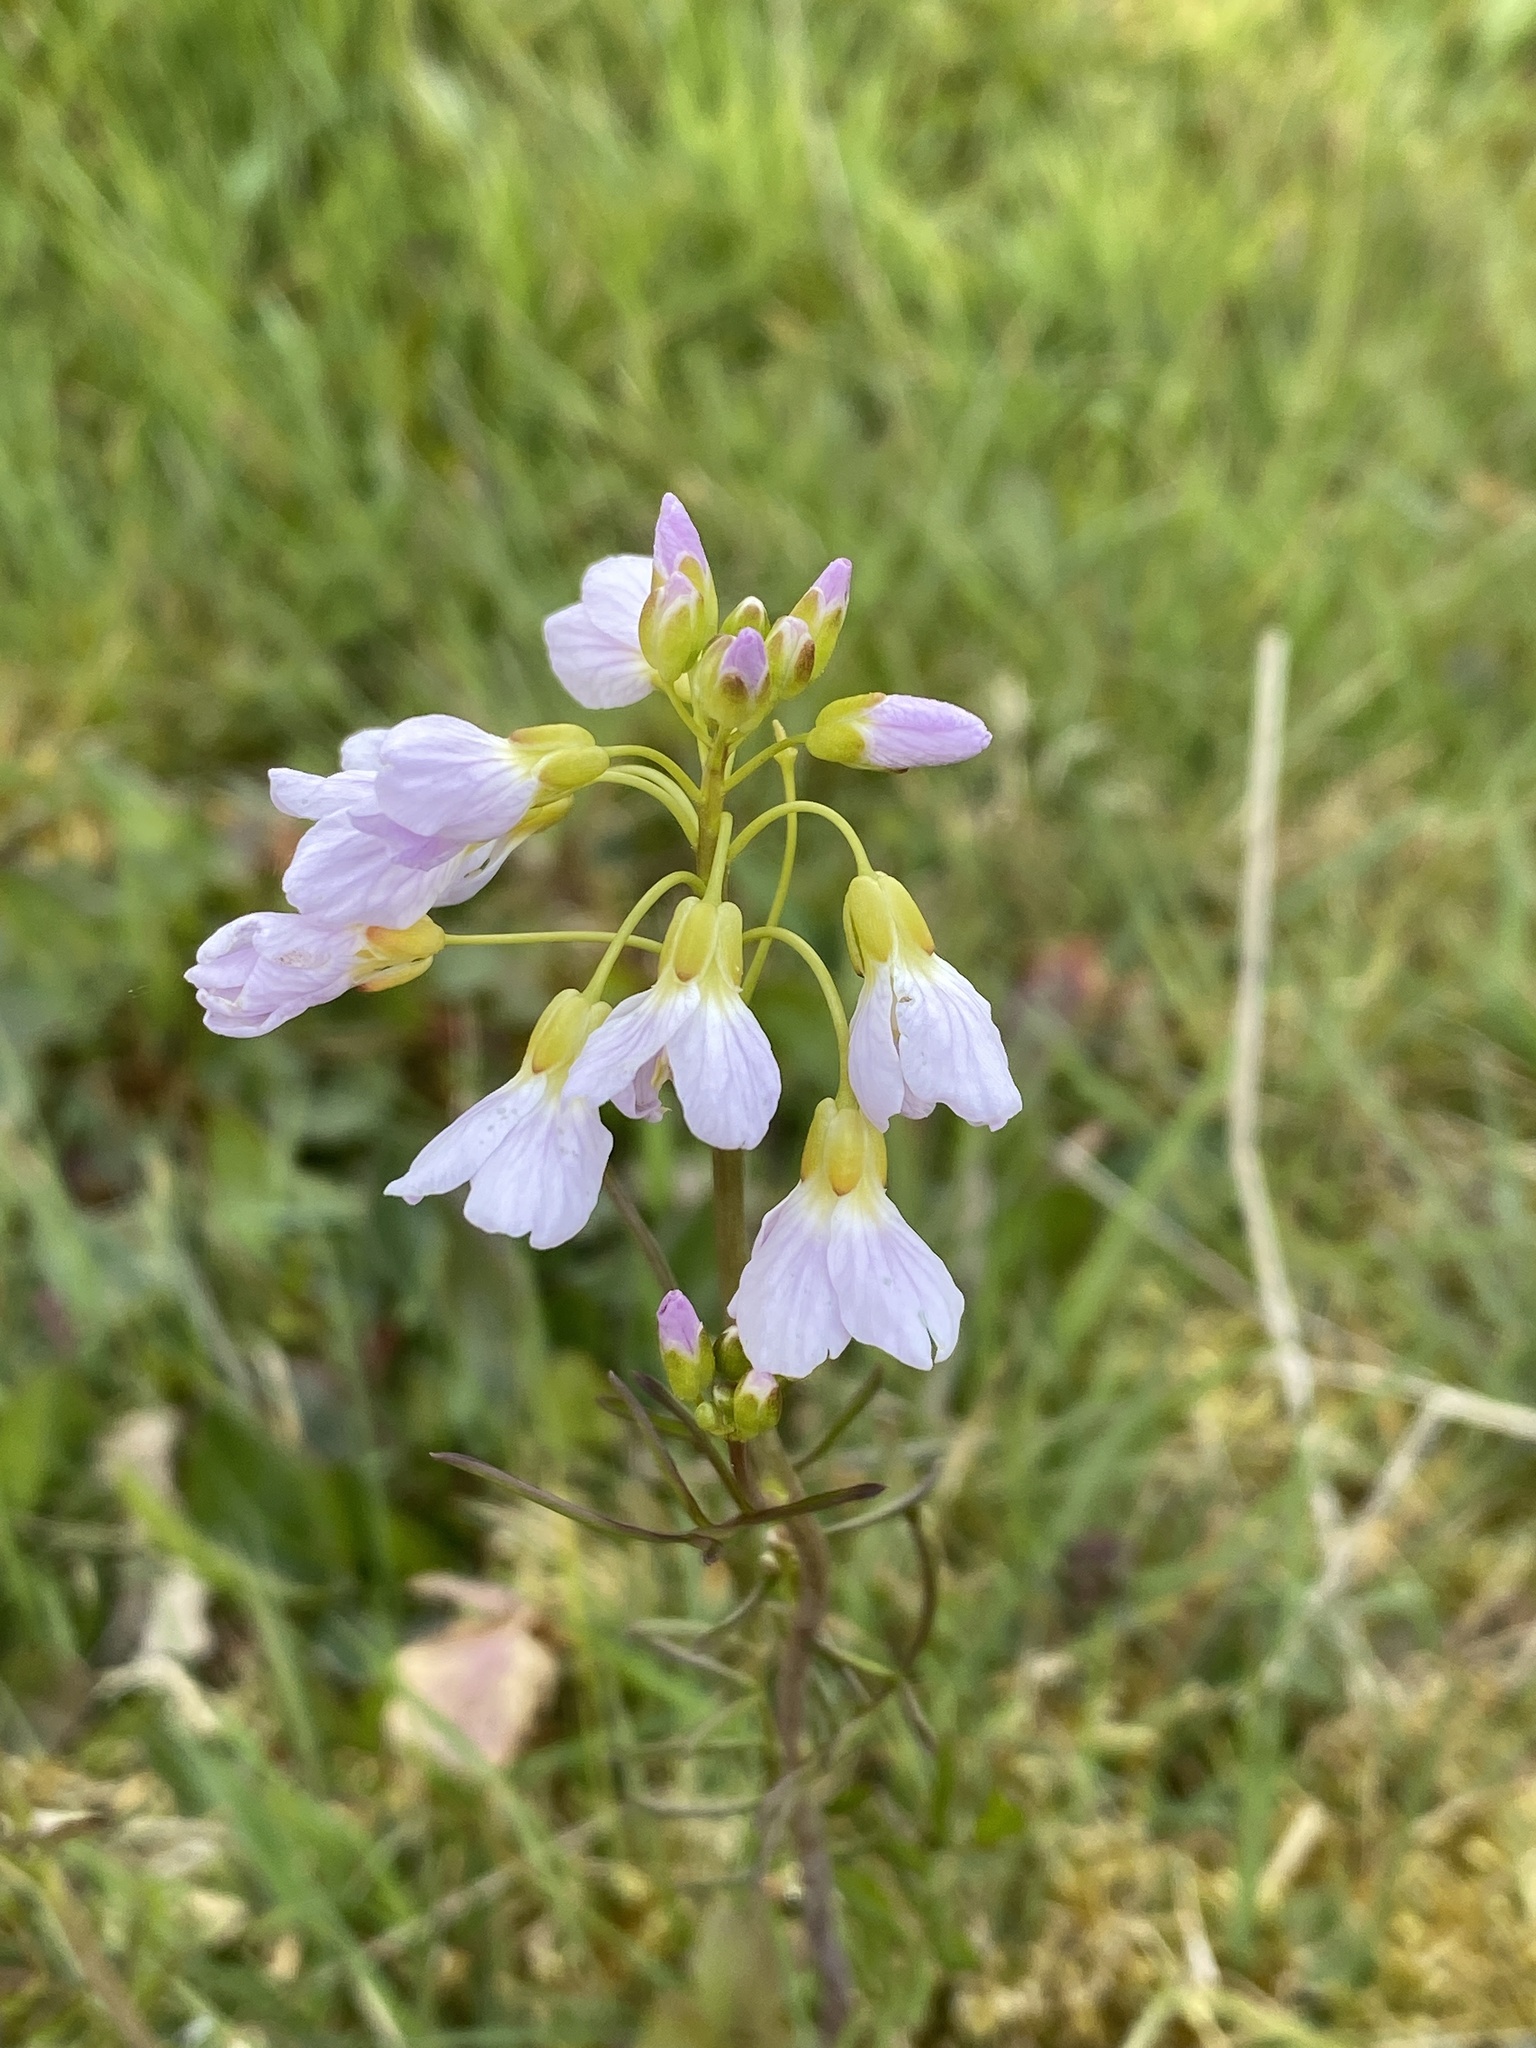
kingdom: Plantae
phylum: Tracheophyta
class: Magnoliopsida
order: Brassicales
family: Brassicaceae
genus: Cardamine
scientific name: Cardamine pratensis
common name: Cuckoo flower
